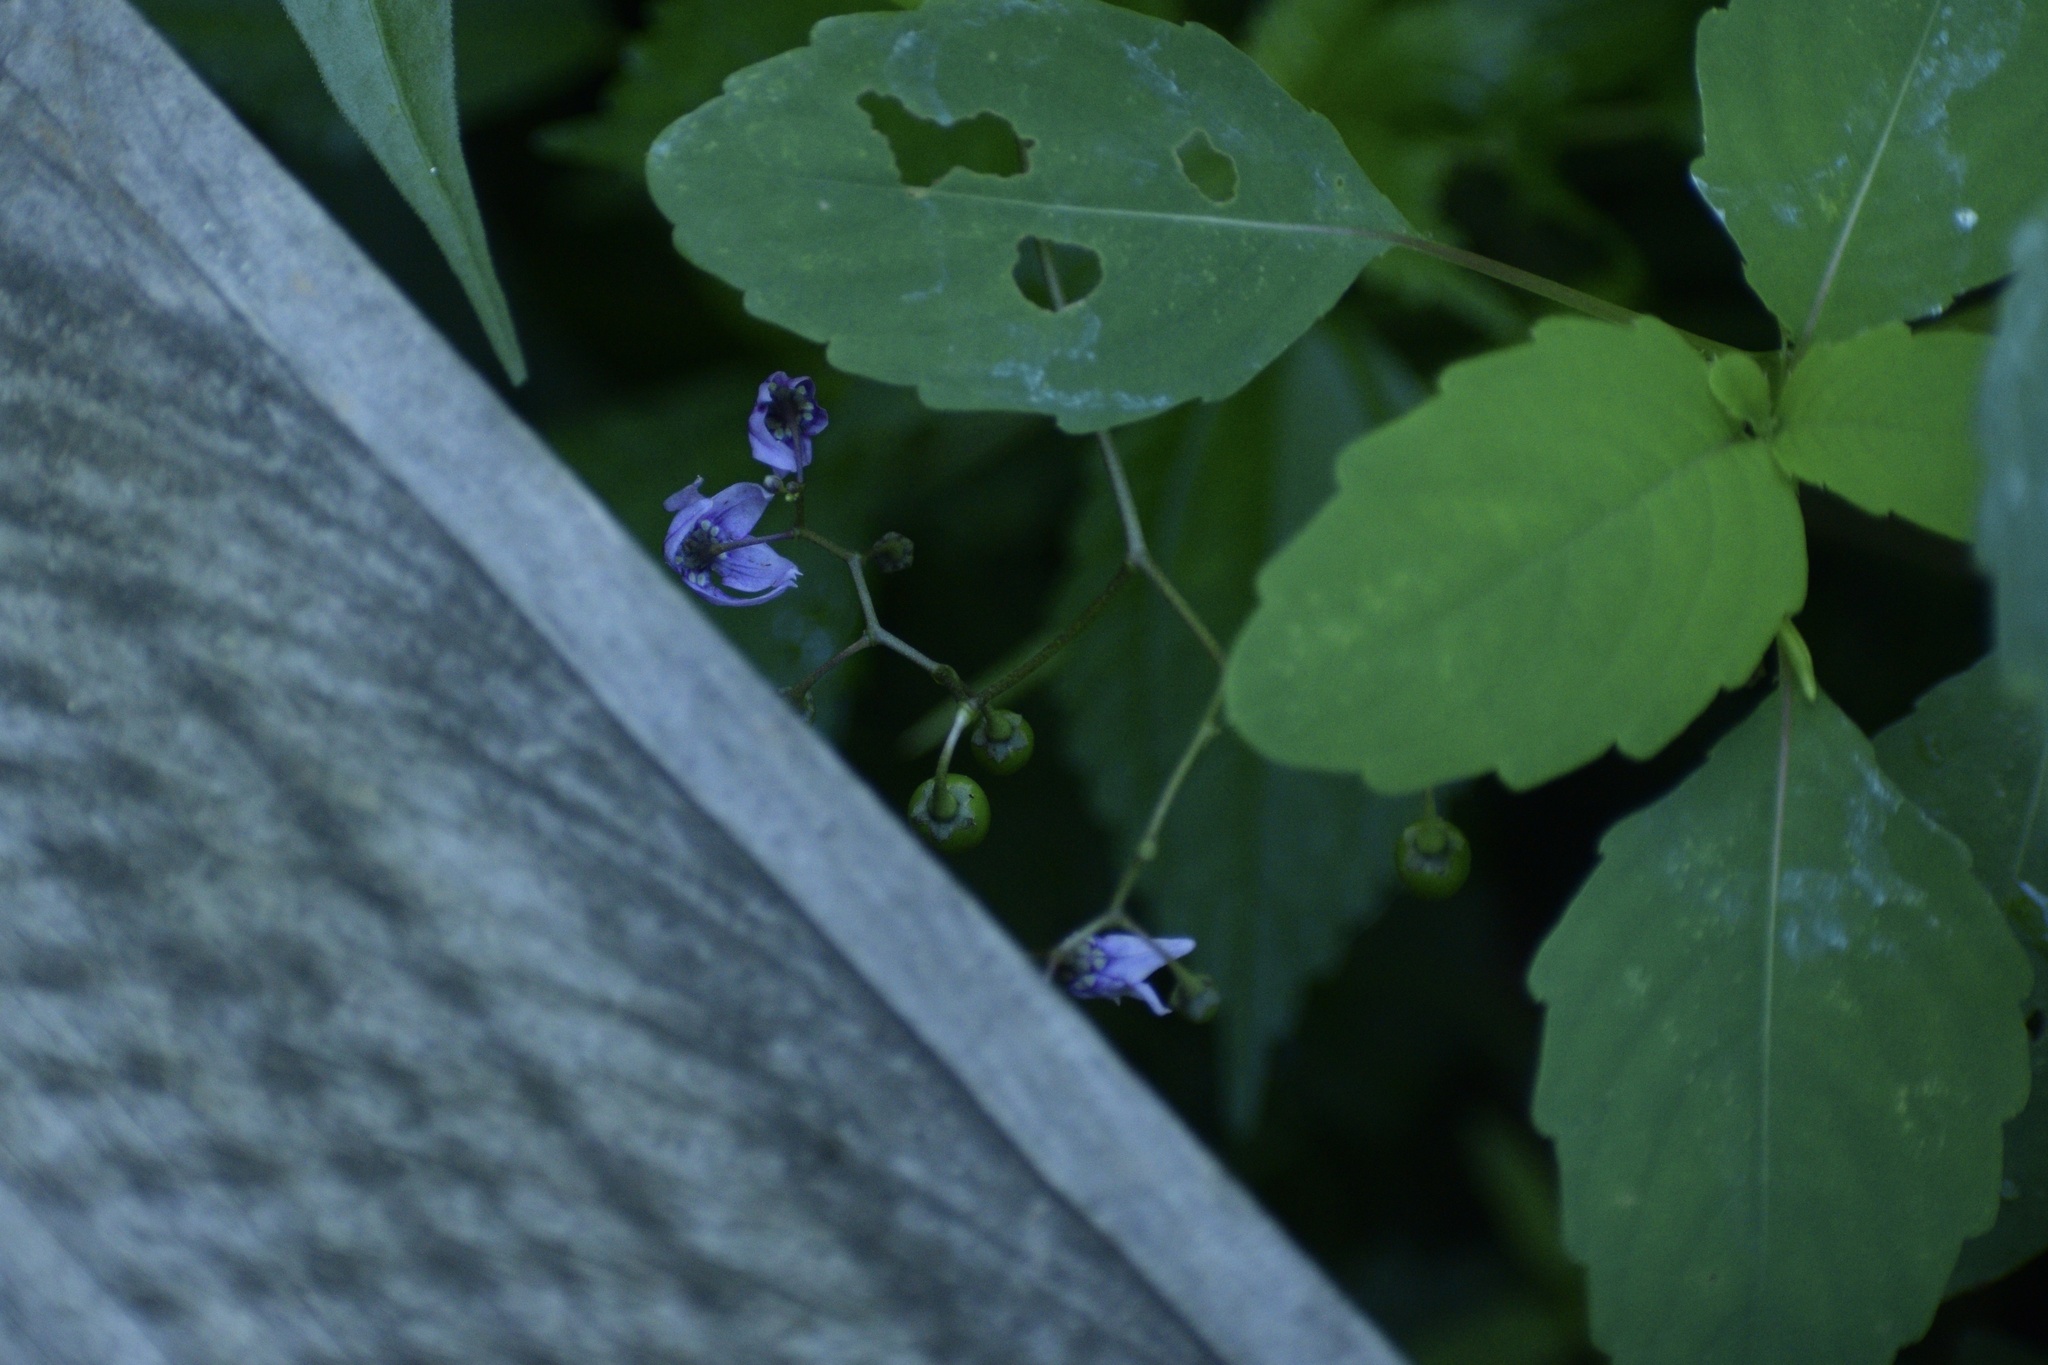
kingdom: Plantae
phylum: Tracheophyta
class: Magnoliopsida
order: Solanales
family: Solanaceae
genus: Solanum
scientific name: Solanum dulcamara
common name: Climbing nightshade
